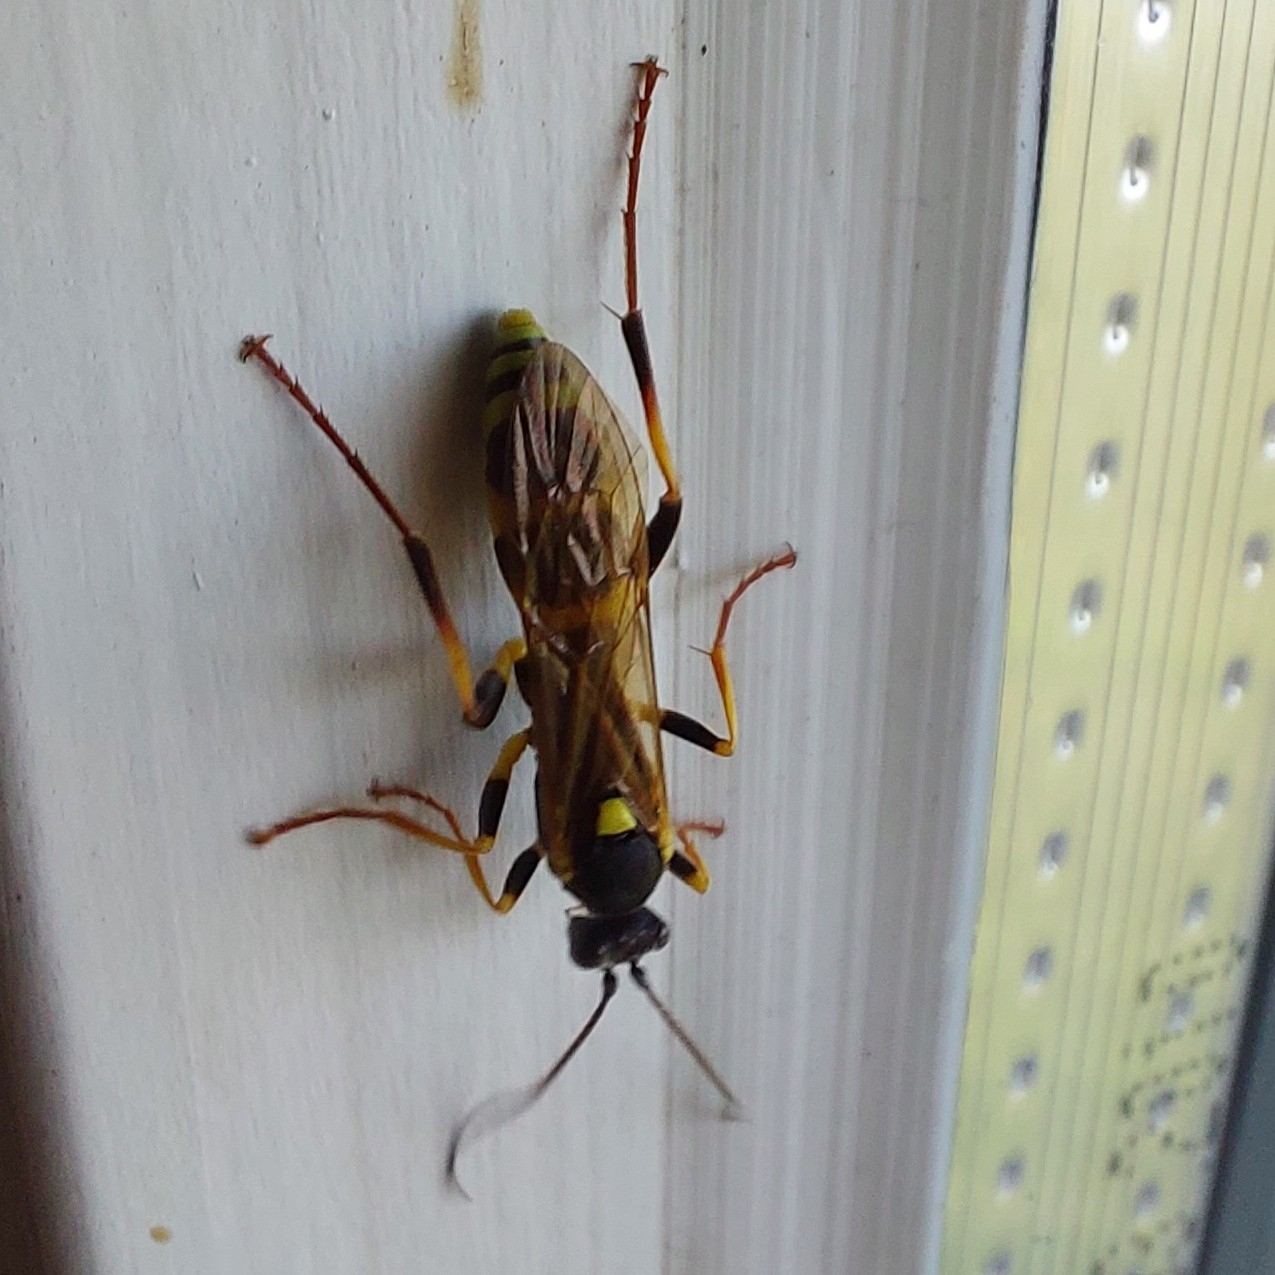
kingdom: Animalia
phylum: Arthropoda
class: Insecta
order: Hymenoptera
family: Ichneumonidae
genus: Amblyteles
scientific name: Amblyteles armatorius
